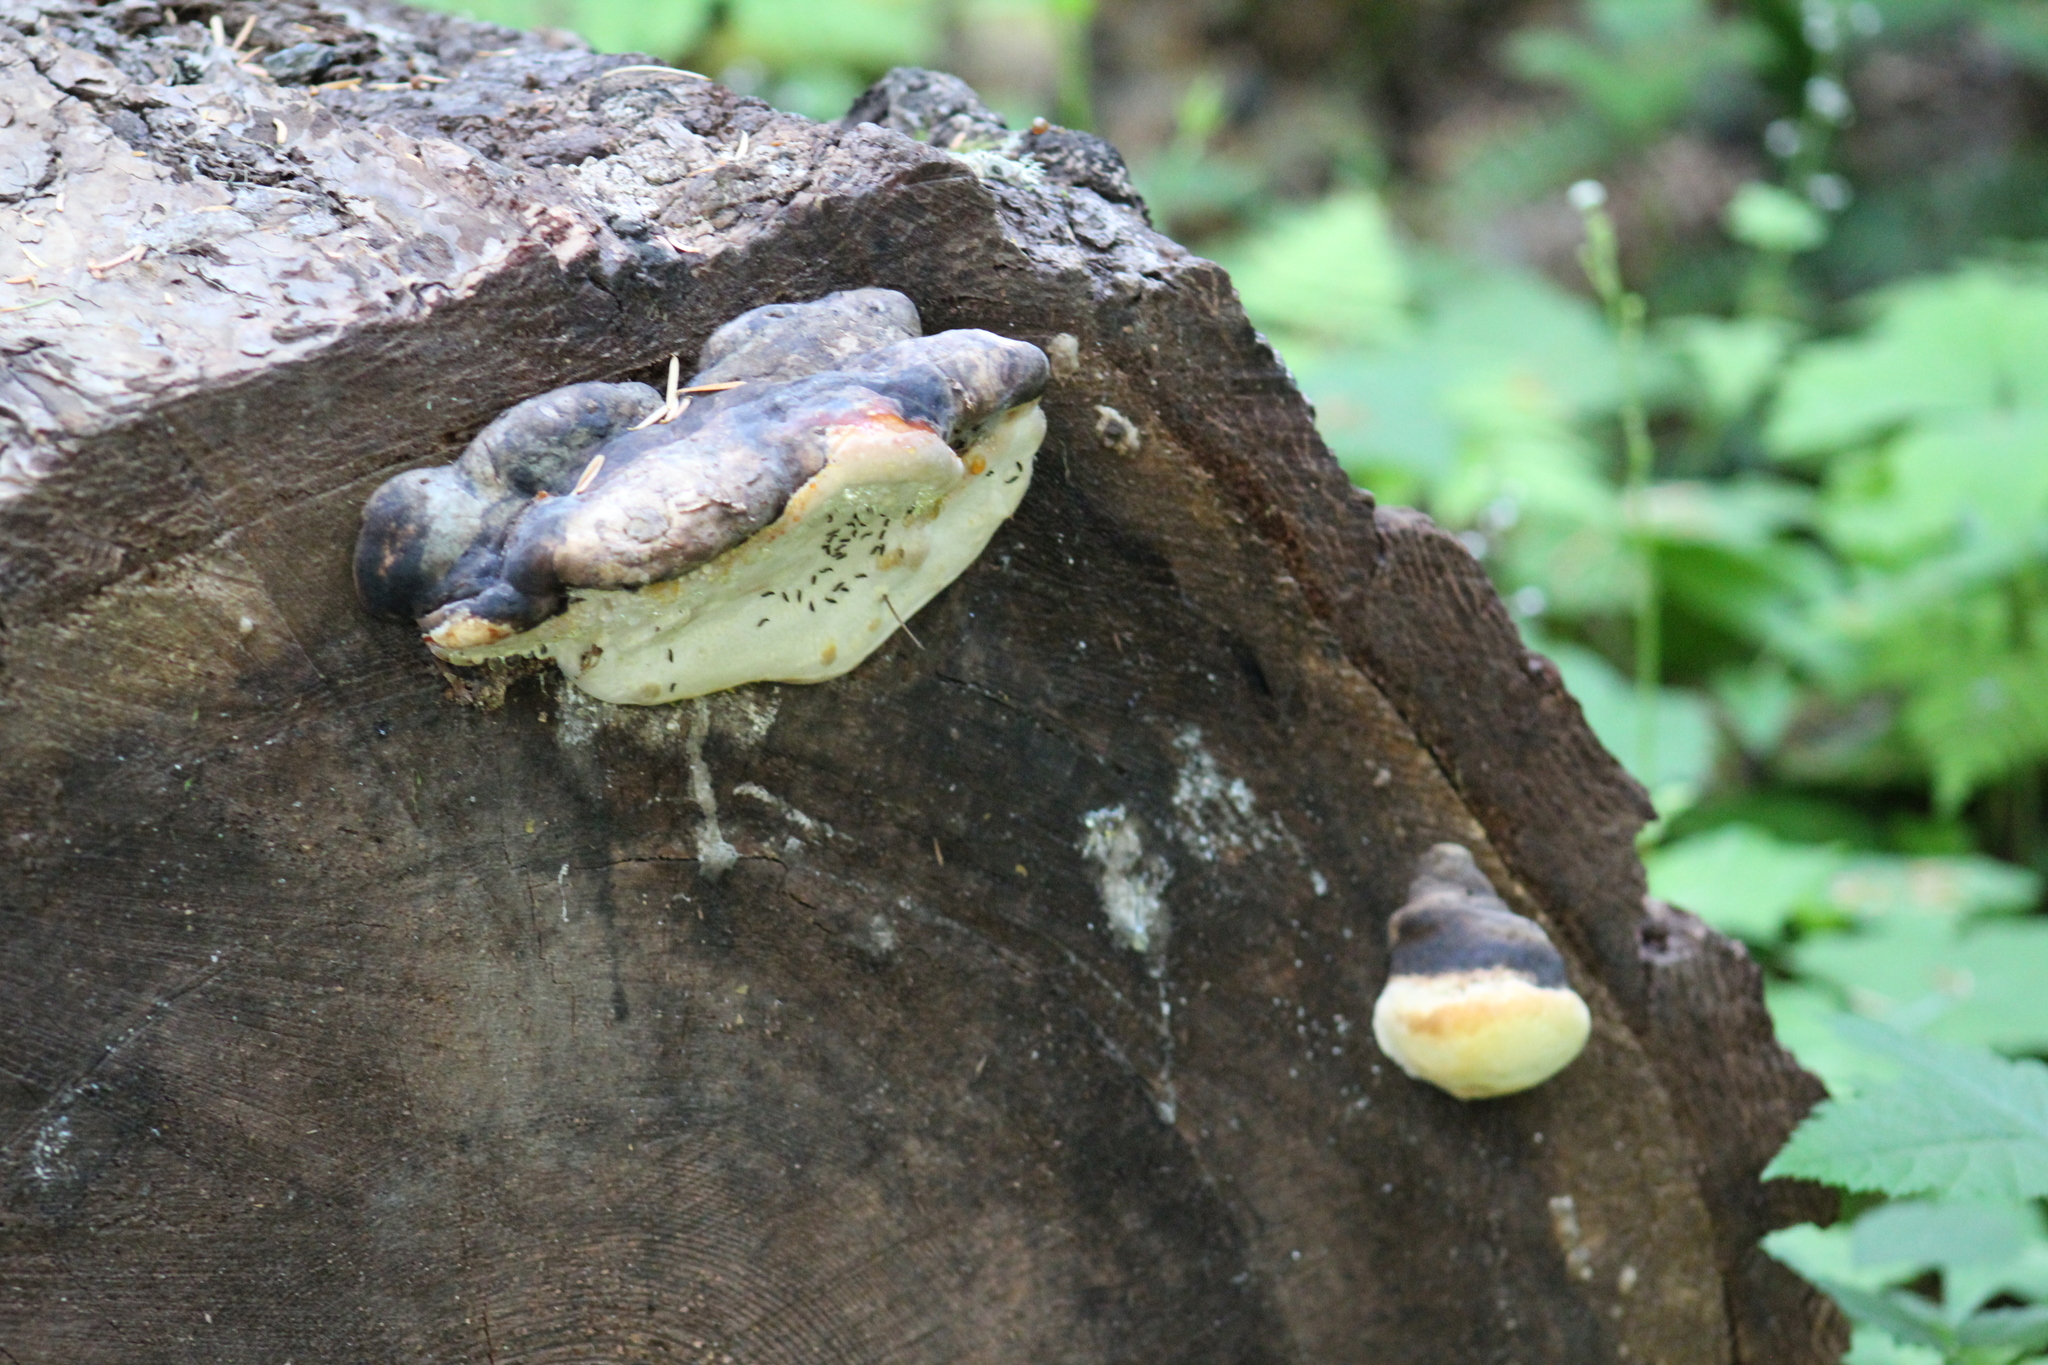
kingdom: Fungi
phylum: Basidiomycota
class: Agaricomycetes
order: Polyporales
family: Fomitopsidaceae
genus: Fomitopsis
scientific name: Fomitopsis mounceae
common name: Northern red belt
